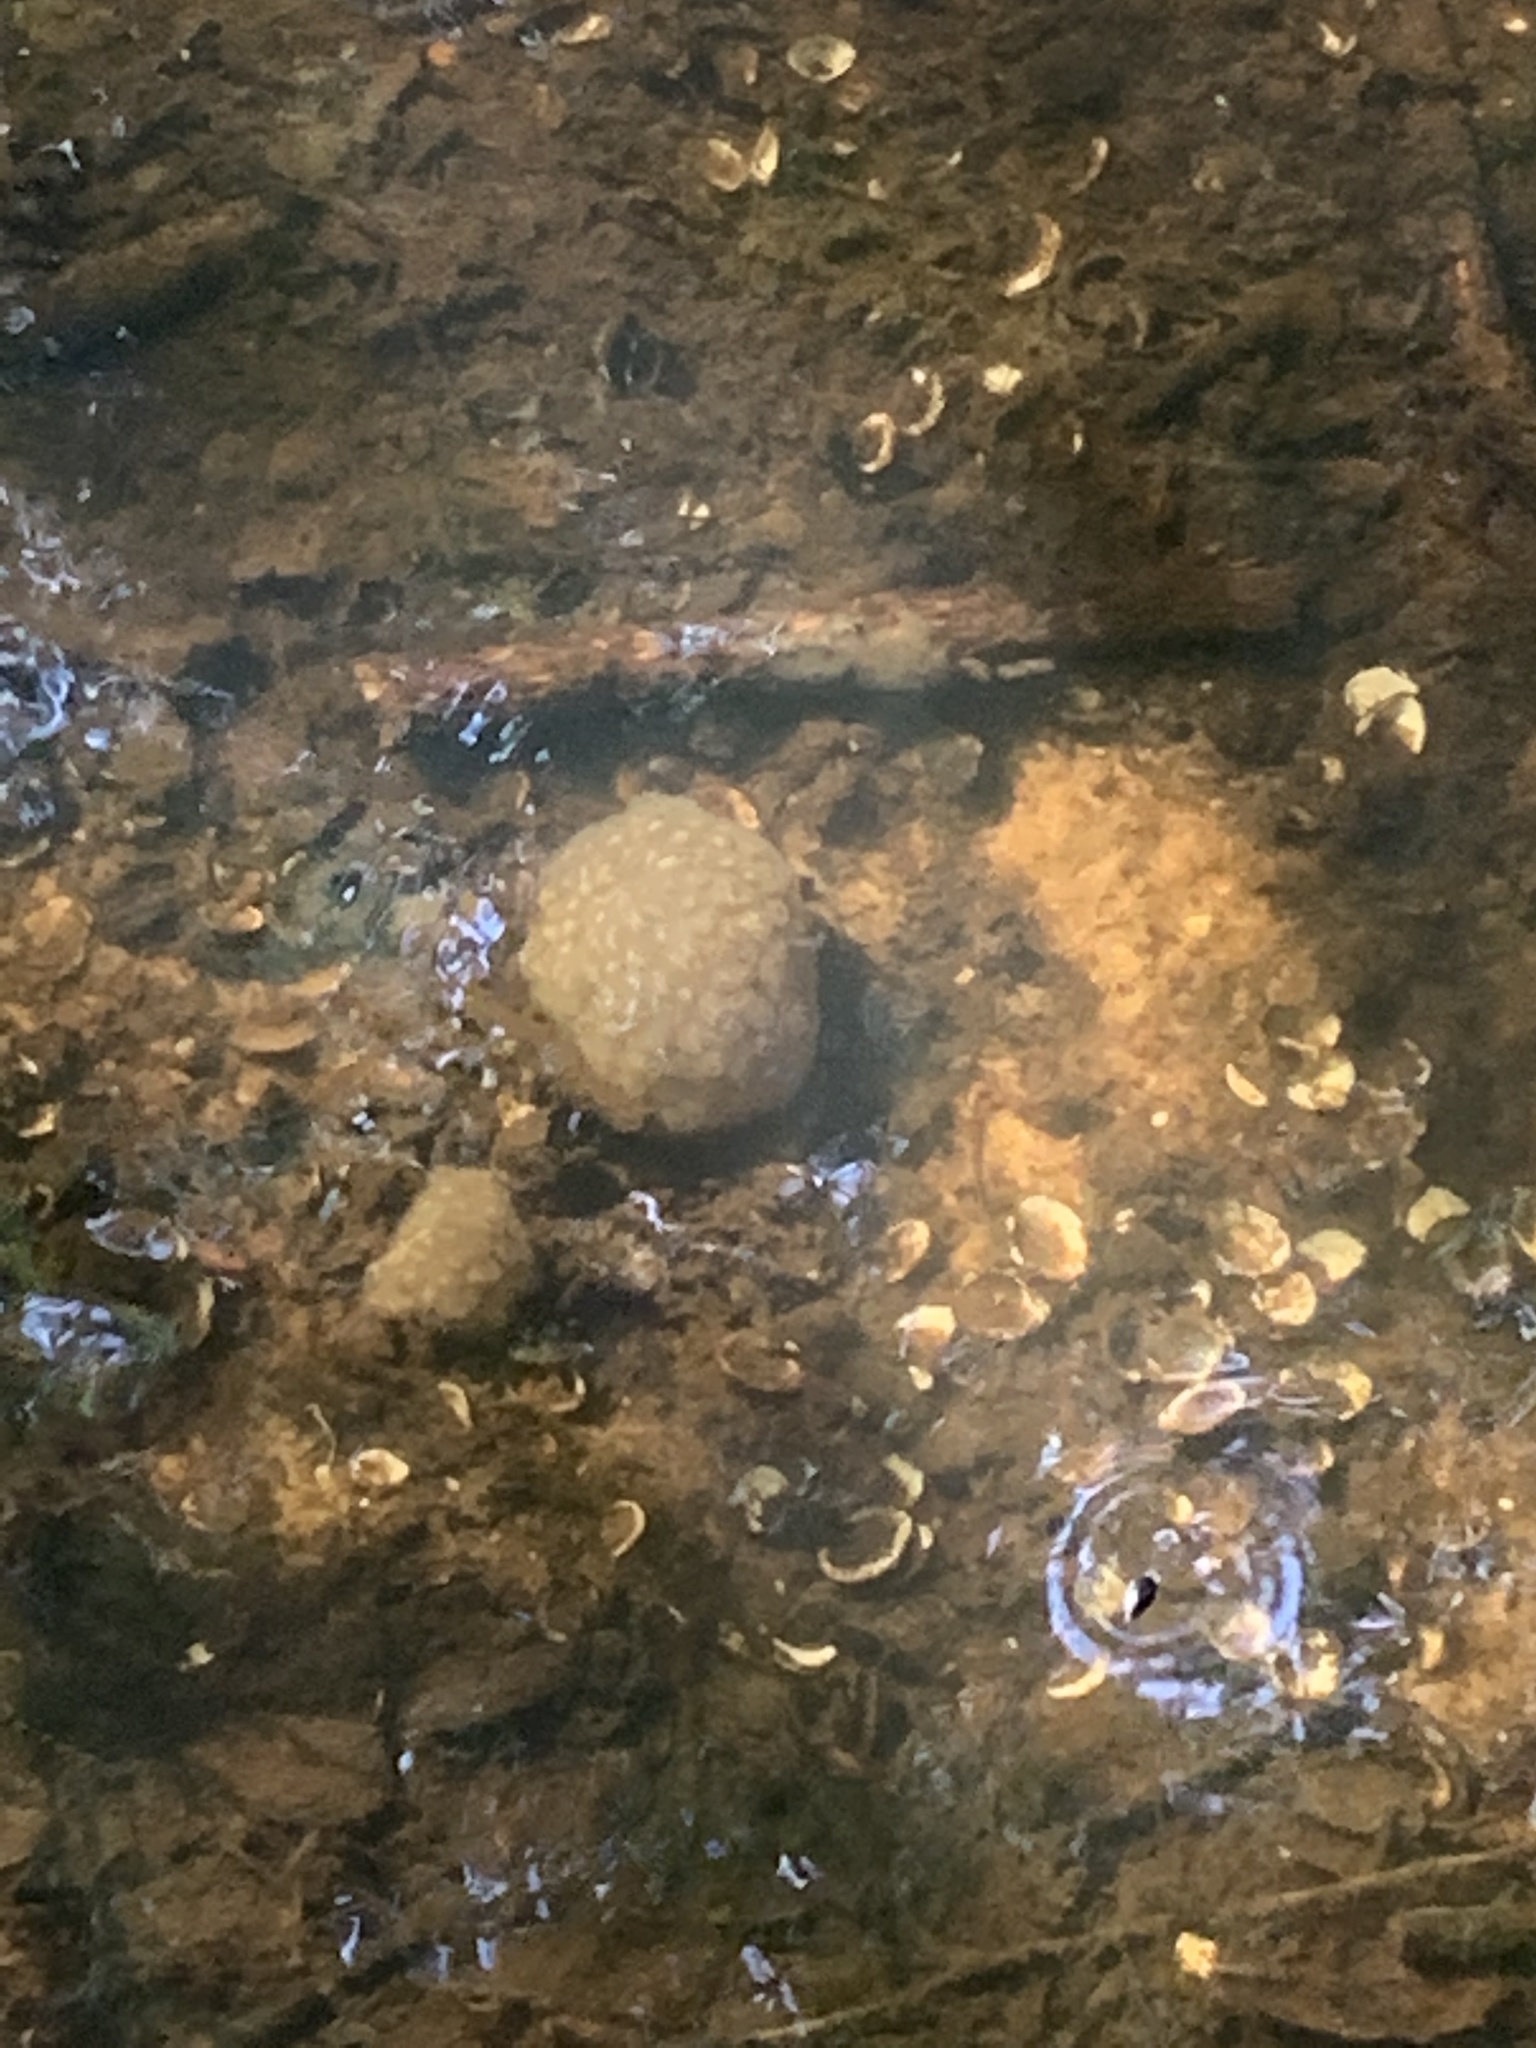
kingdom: Animalia
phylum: Bryozoa
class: Phylactolaemata
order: Plumatellida
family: Pectinatellidae
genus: Pectinatella
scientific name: Pectinatella magnifica
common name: Magnificent bryozoan
